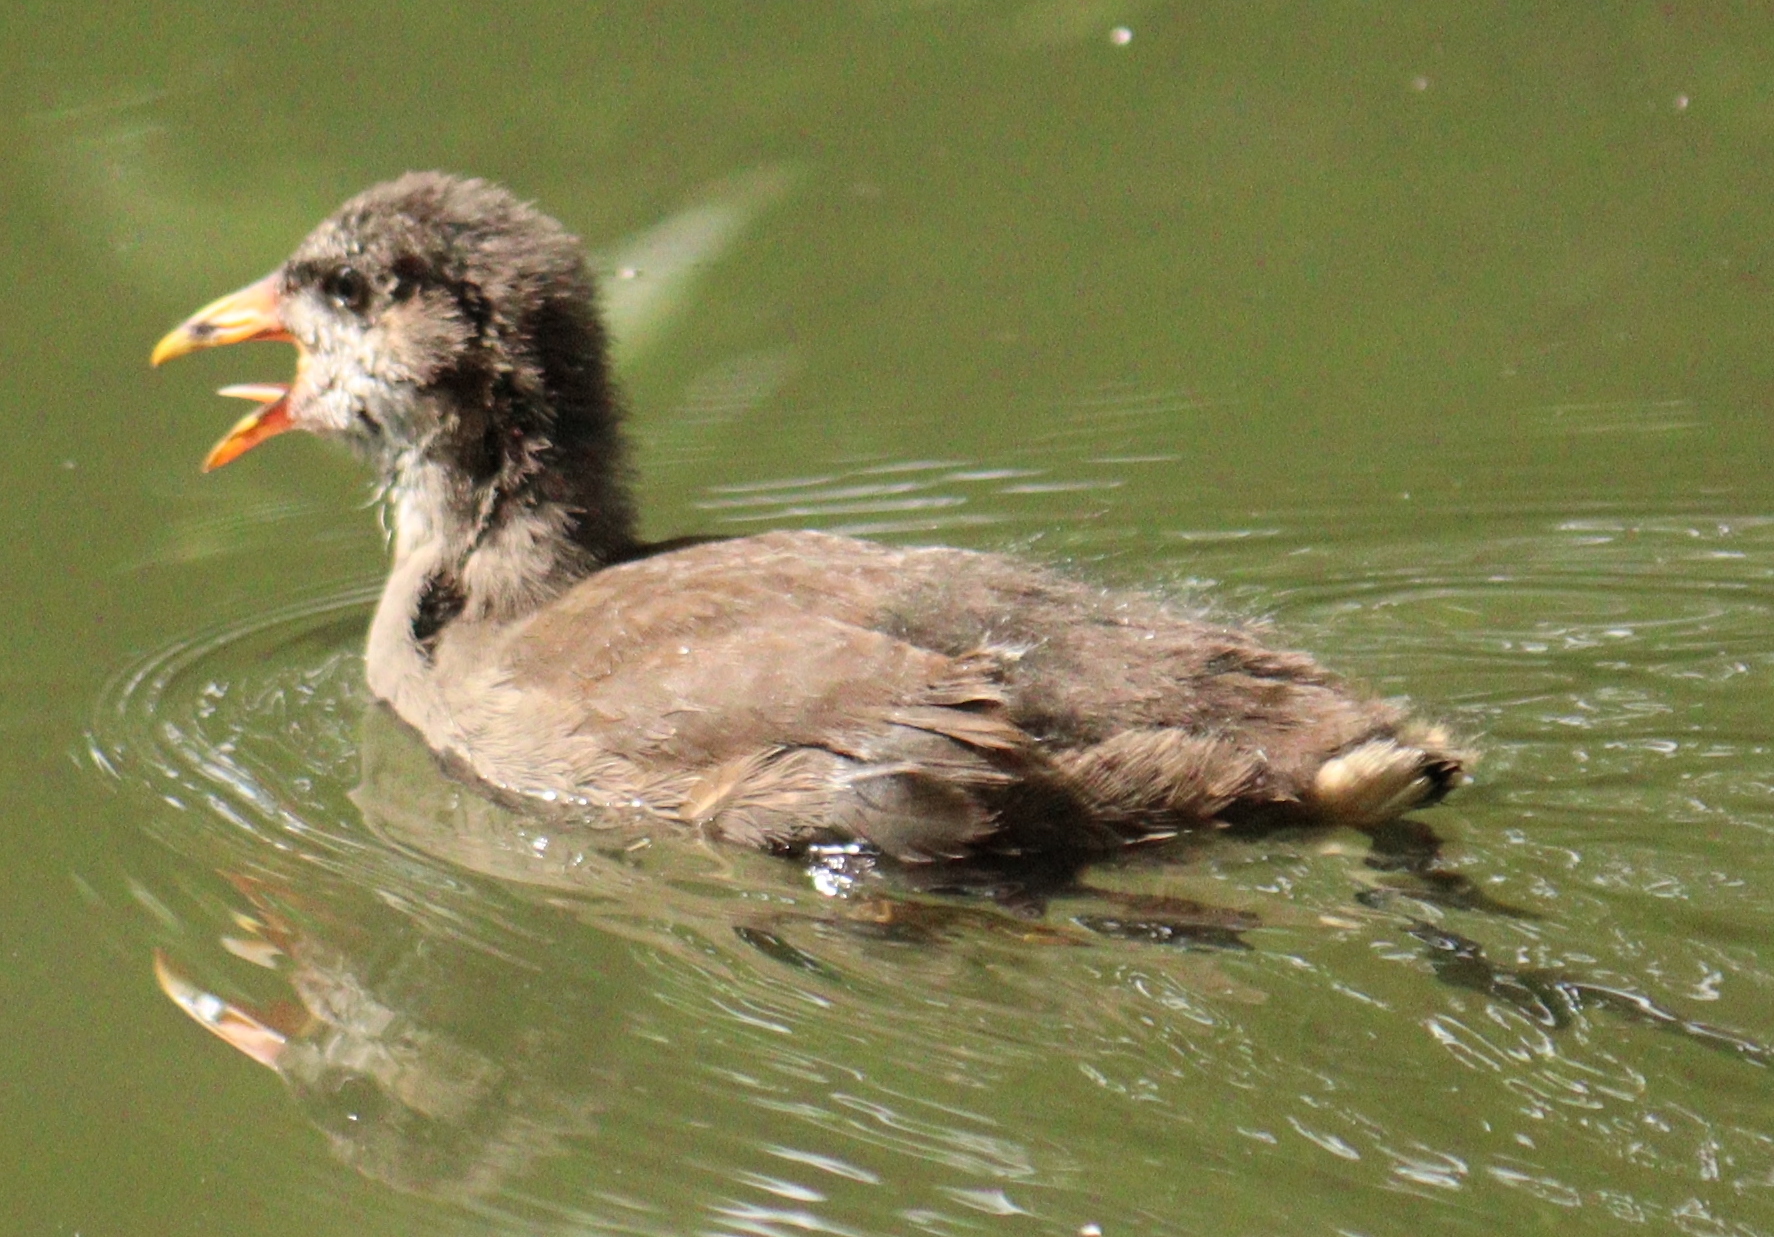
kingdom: Animalia
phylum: Chordata
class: Aves
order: Gruiformes
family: Rallidae
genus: Gallinula
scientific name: Gallinula chloropus
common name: Common moorhen
